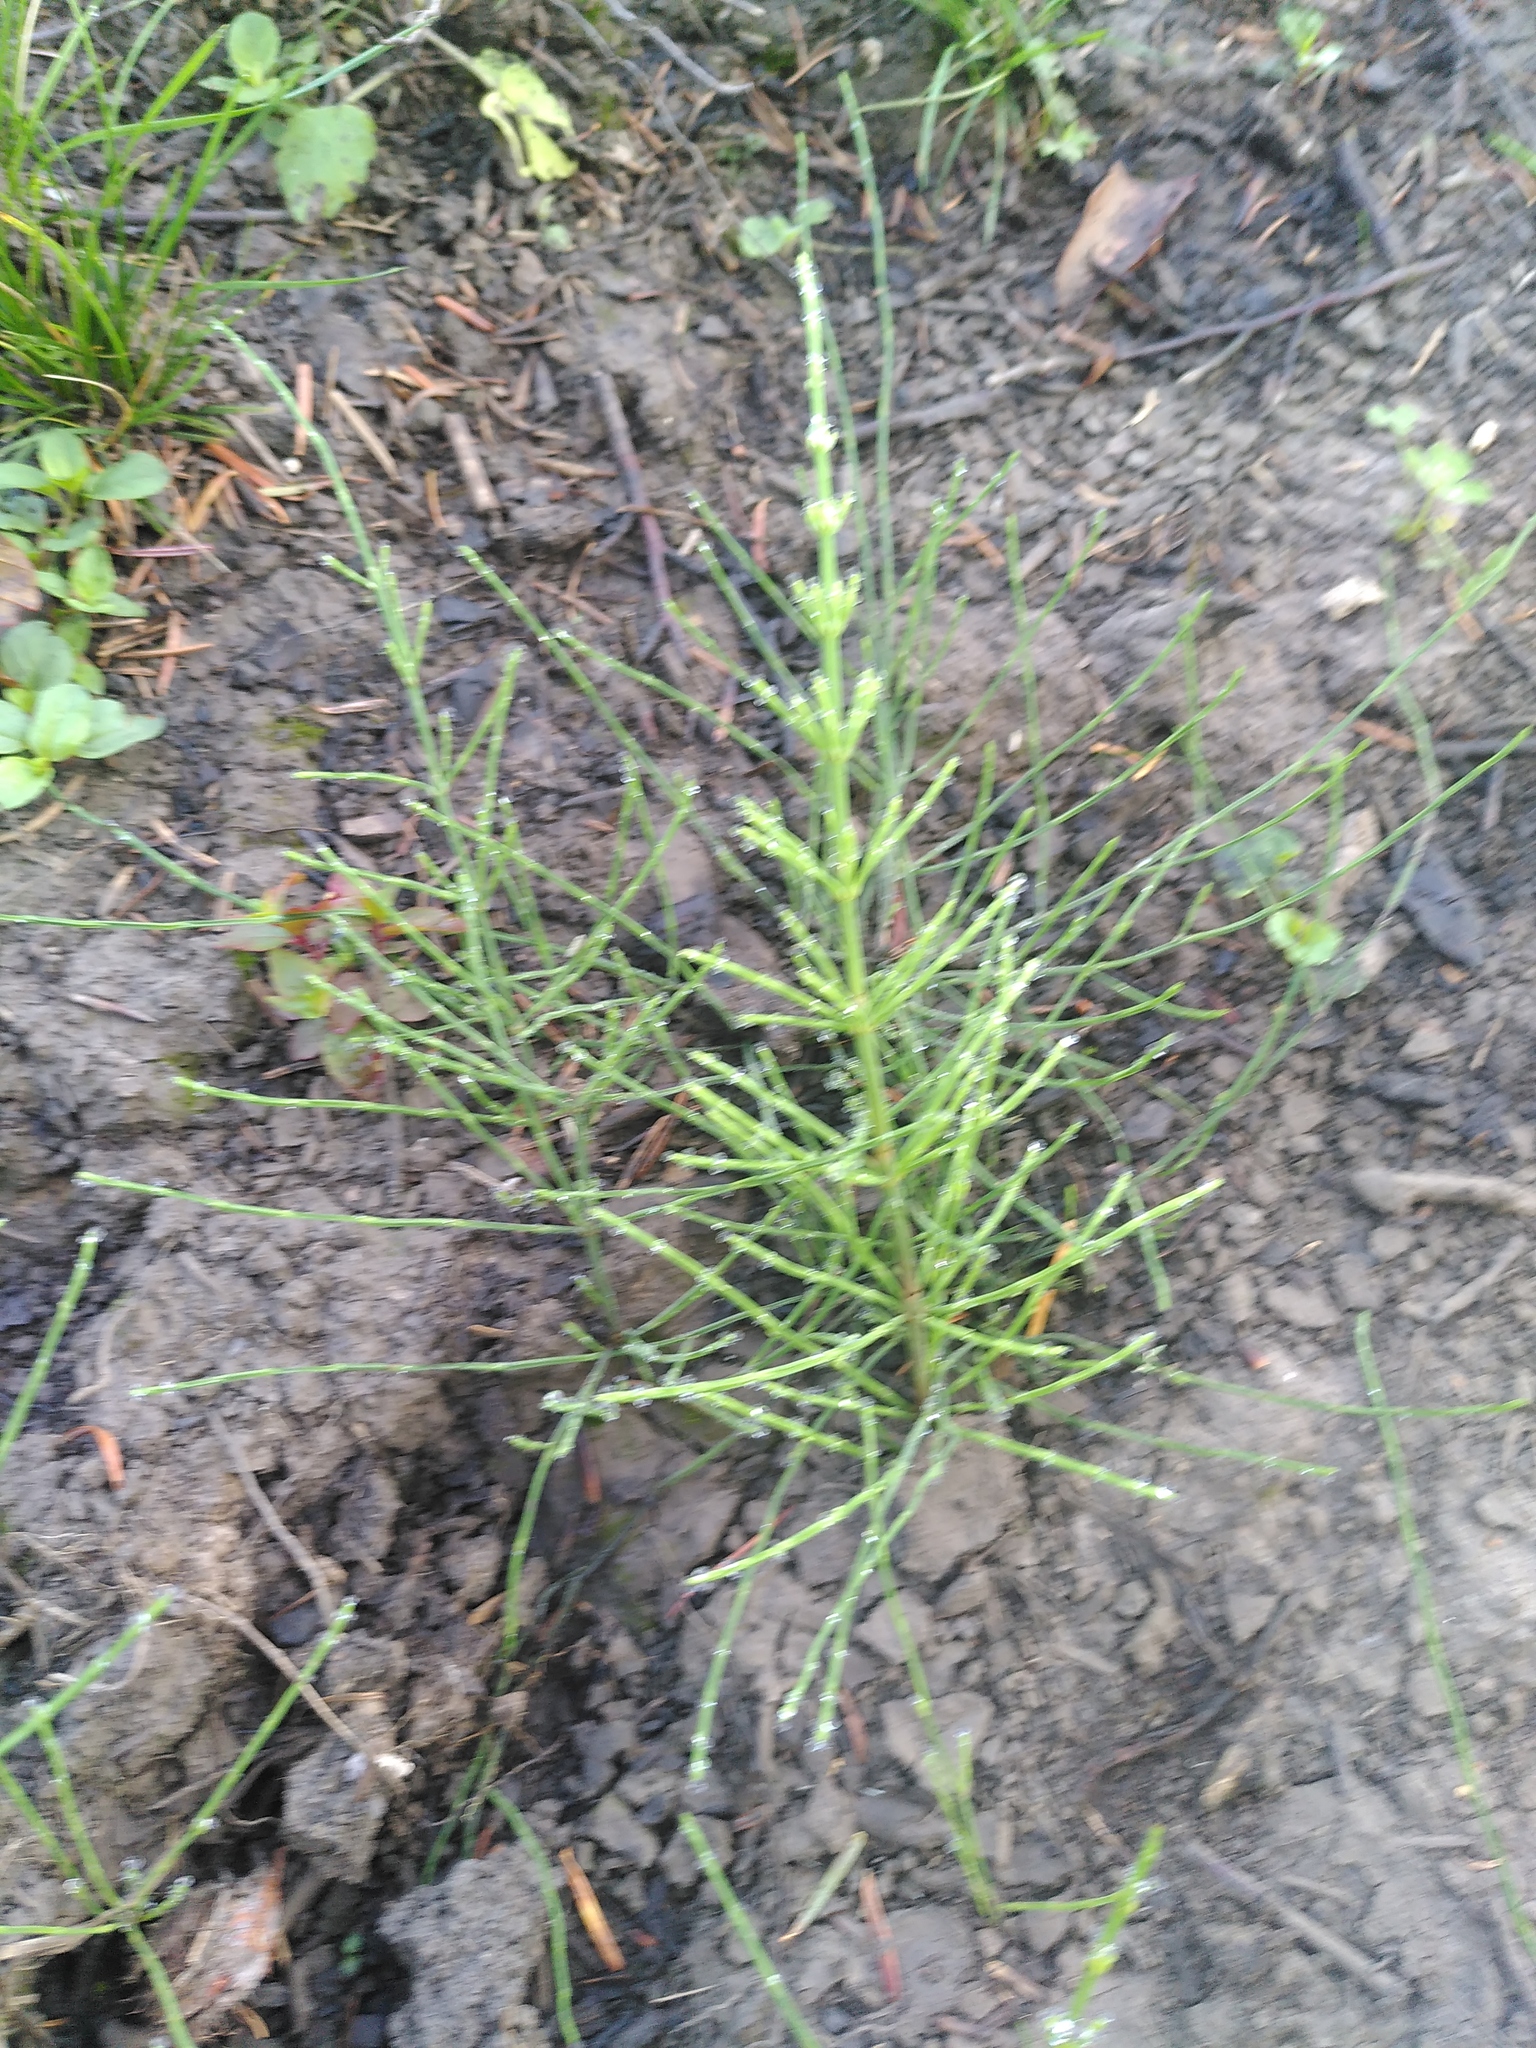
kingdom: Plantae
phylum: Tracheophyta
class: Polypodiopsida
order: Equisetales
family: Equisetaceae
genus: Equisetum
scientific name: Equisetum arvense
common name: Field horsetail
